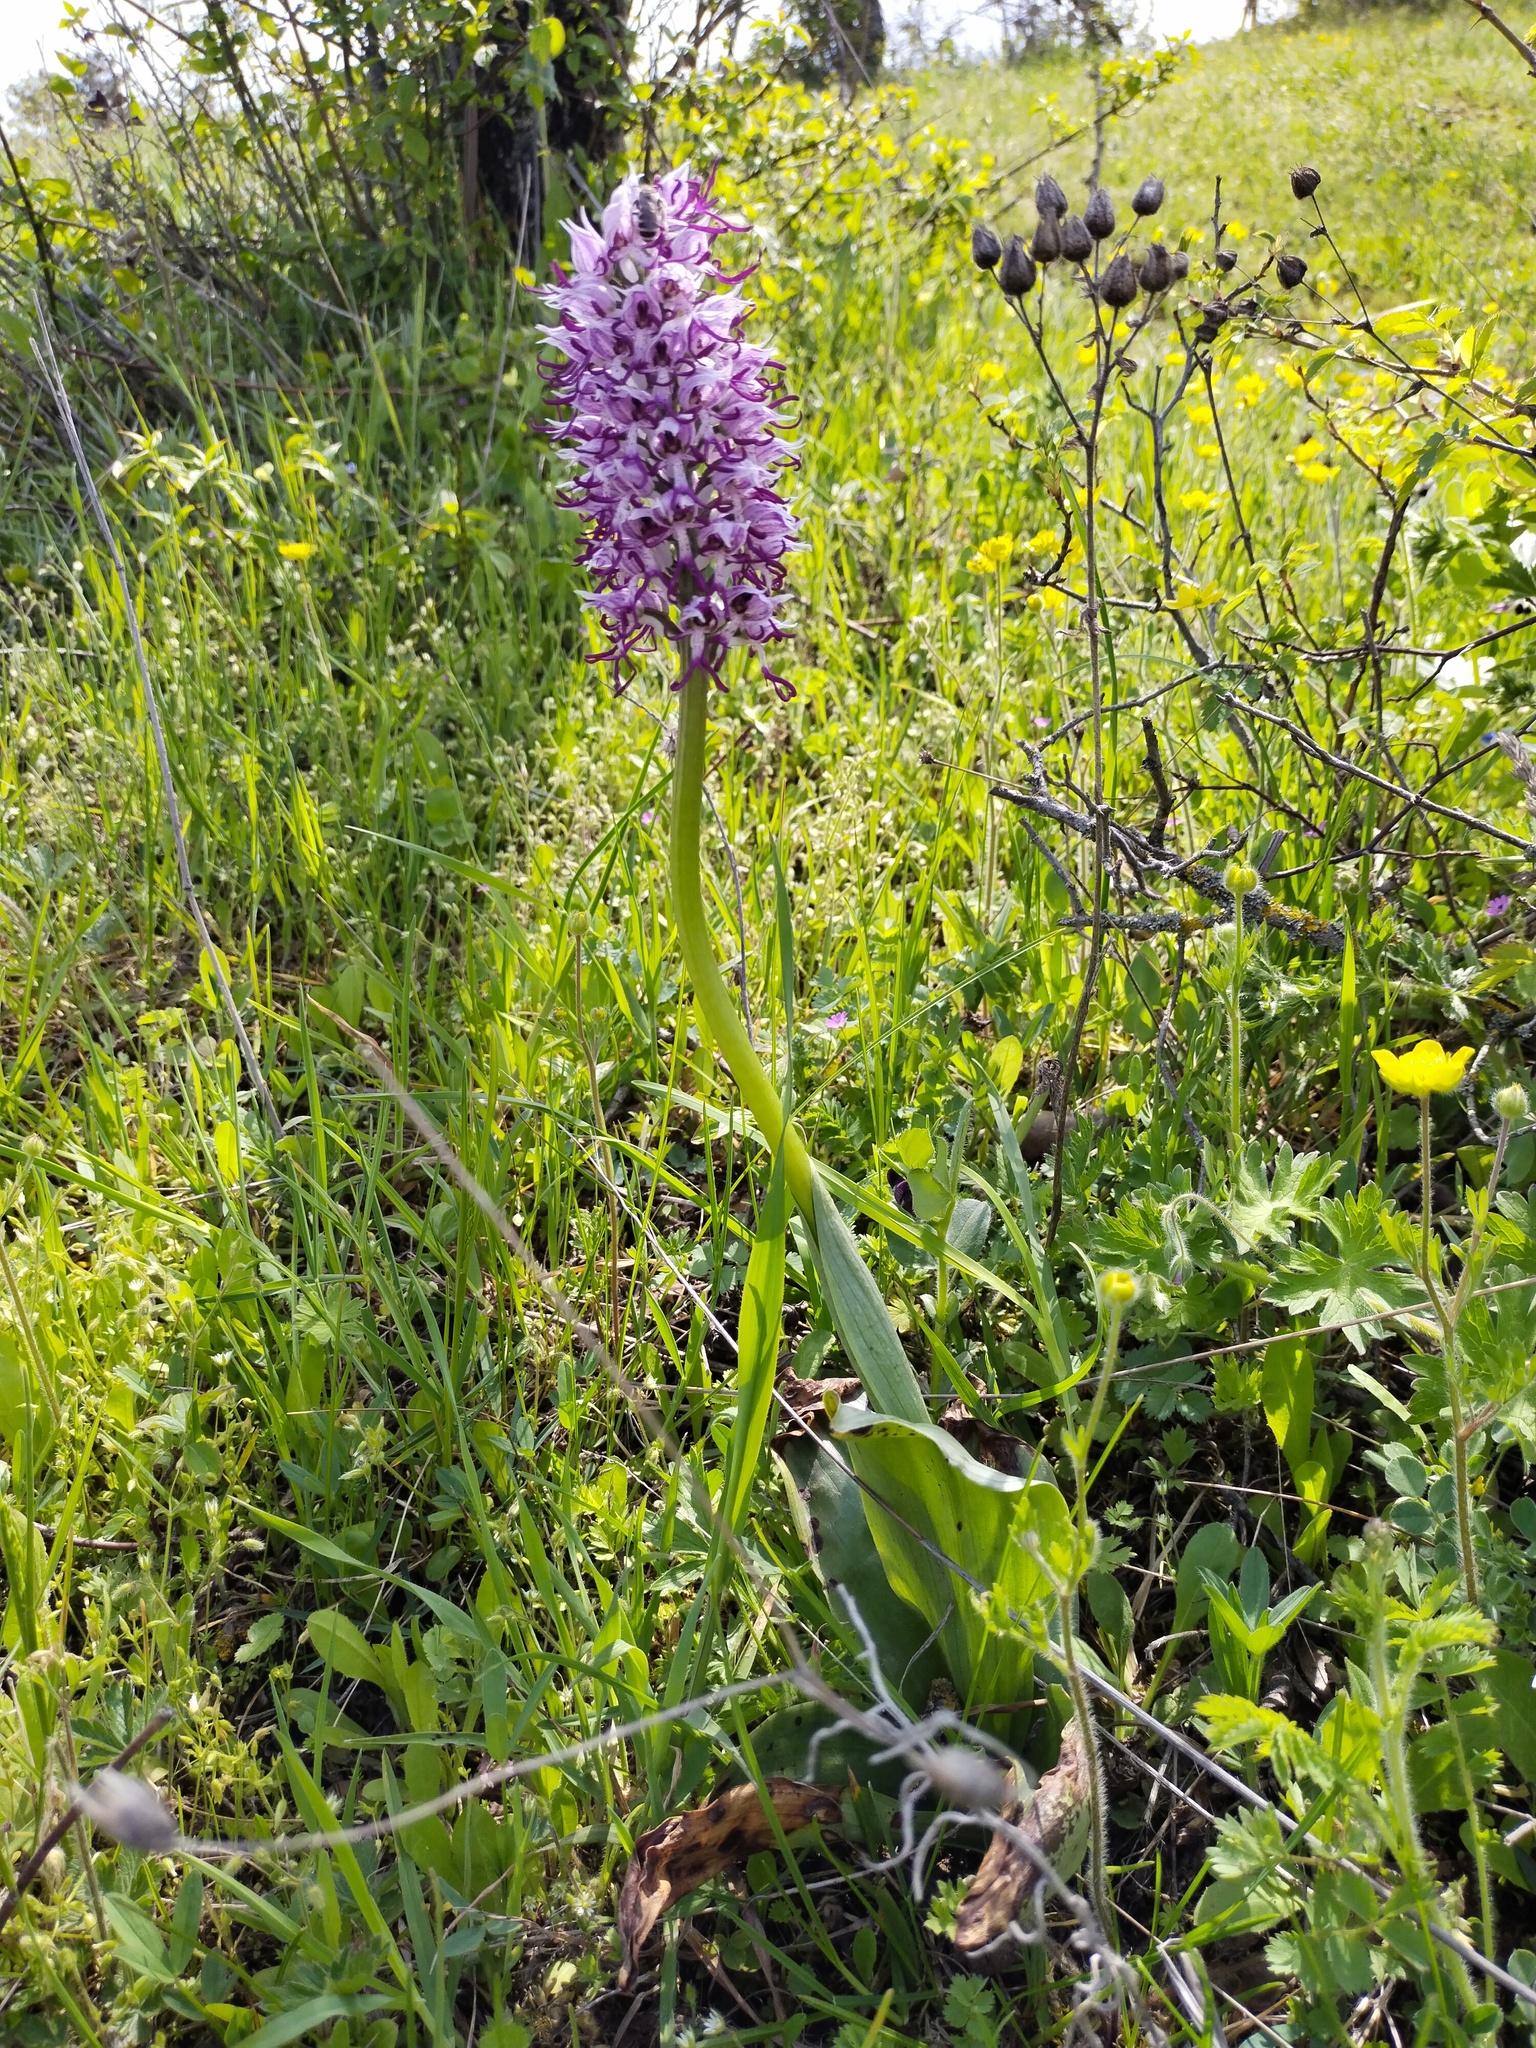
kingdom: Plantae
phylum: Tracheophyta
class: Liliopsida
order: Asparagales
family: Orchidaceae
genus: Orchis
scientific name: Orchis simia
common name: Monkey orchid
